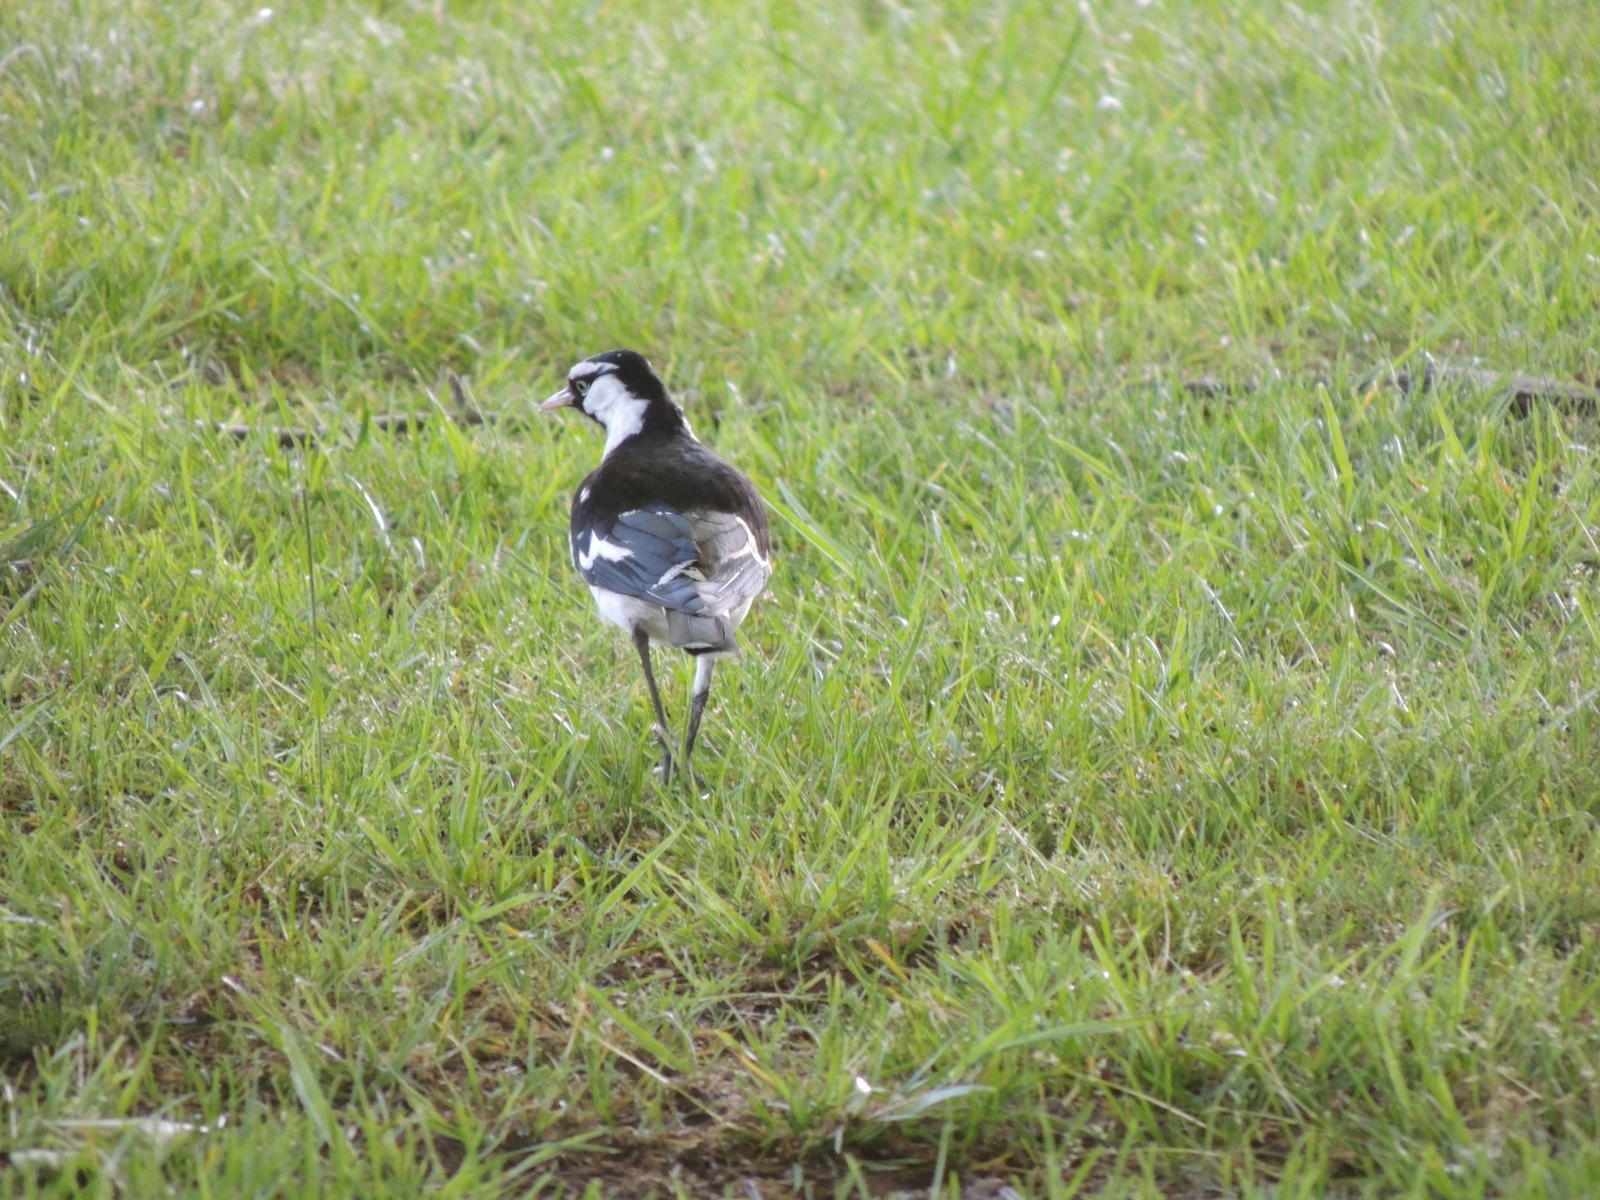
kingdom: Animalia
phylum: Chordata
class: Aves
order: Passeriformes
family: Monarchidae
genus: Grallina
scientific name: Grallina cyanoleuca
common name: Magpie-lark
